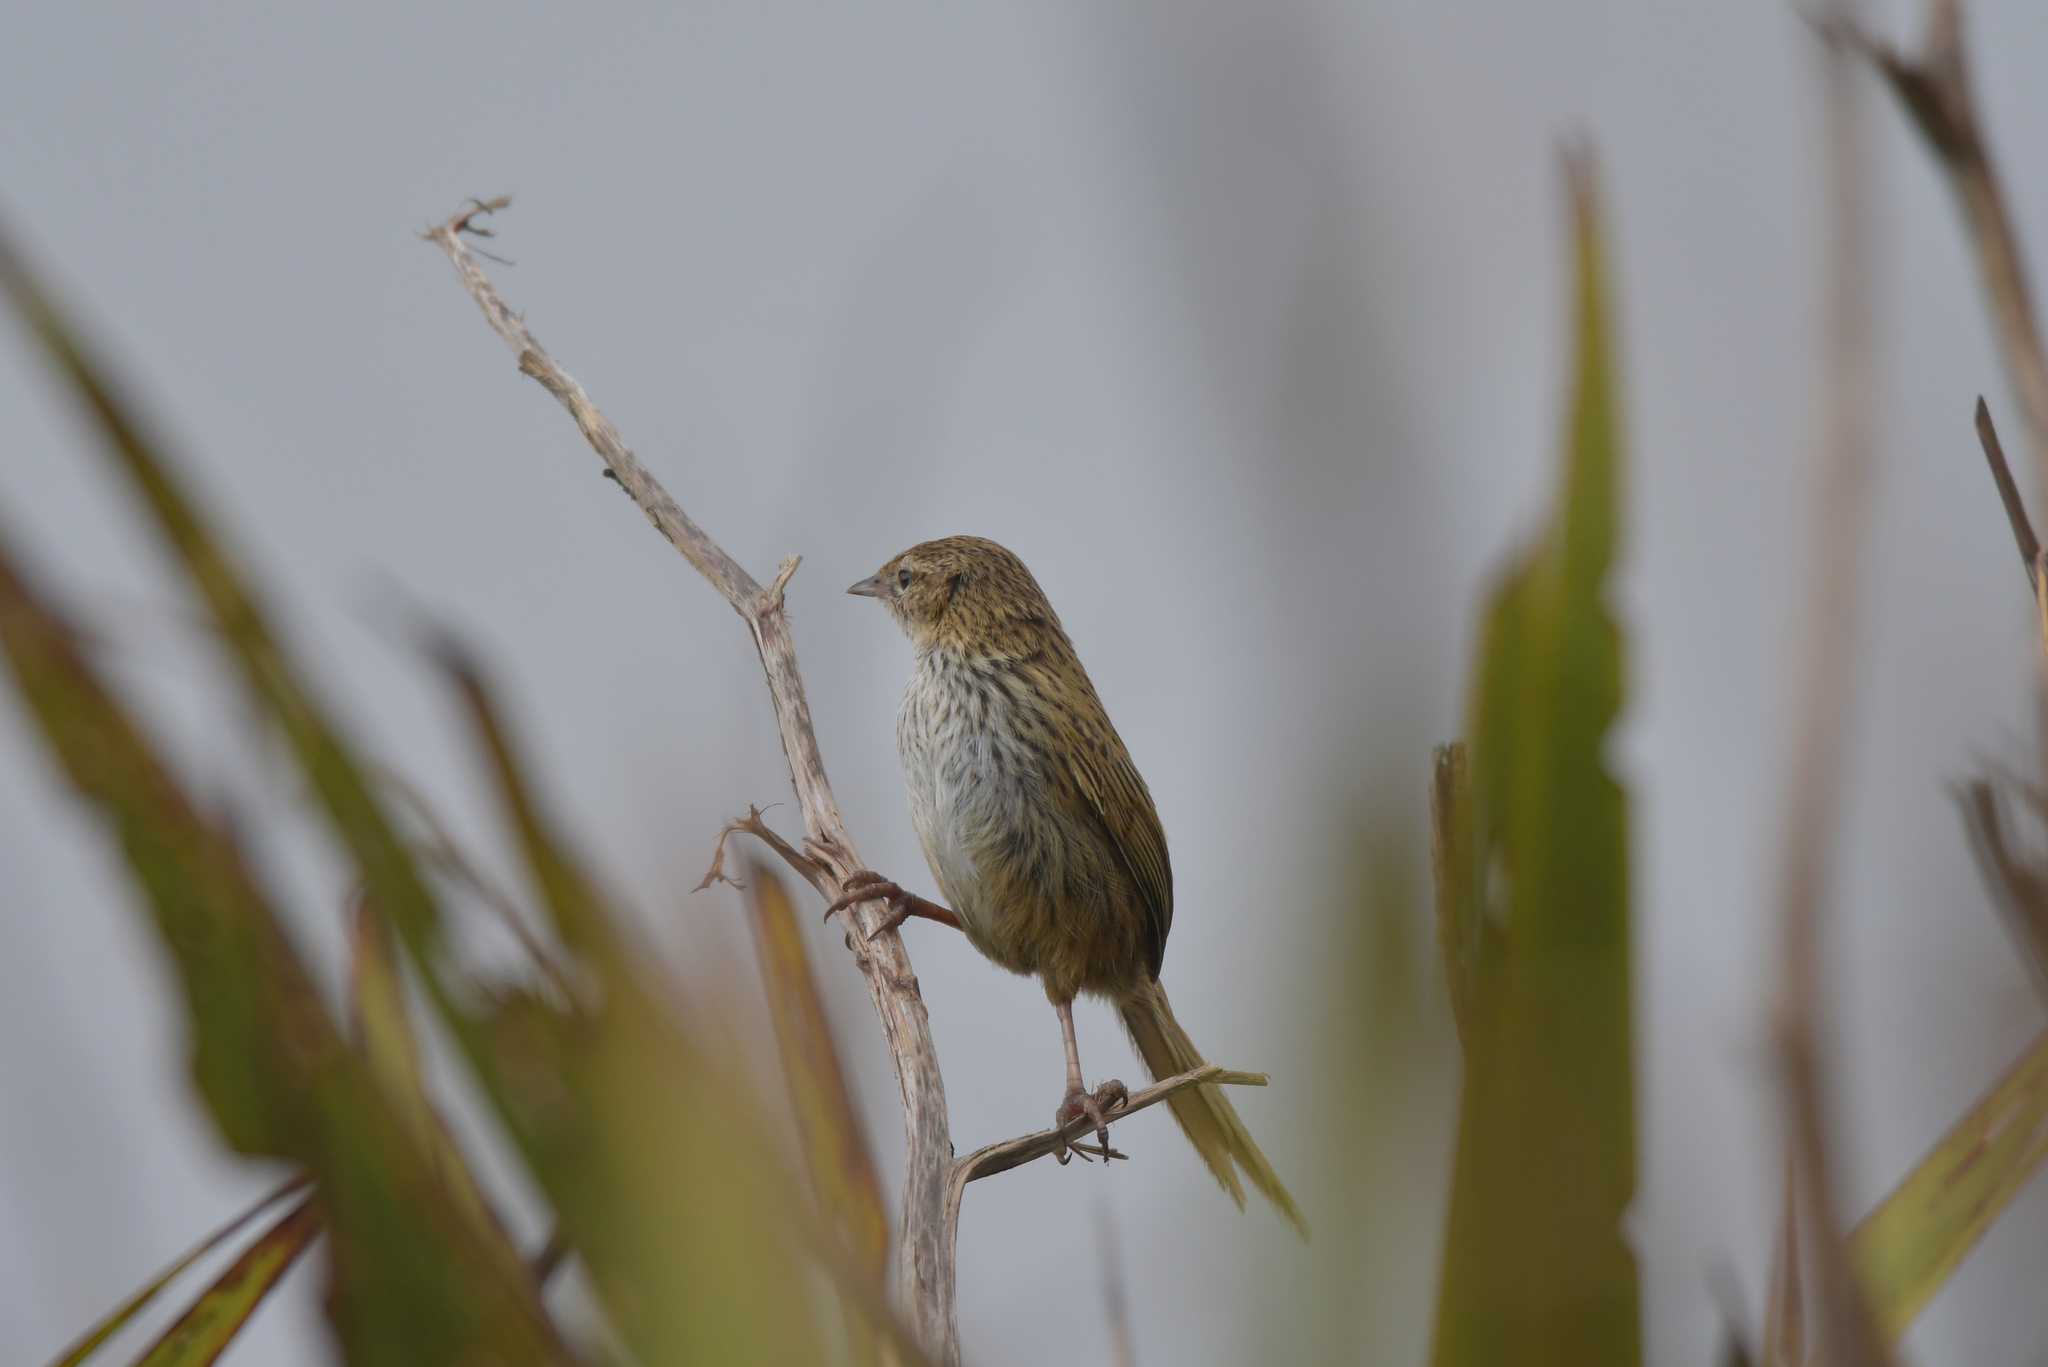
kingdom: Animalia
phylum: Chordata
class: Aves
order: Passeriformes
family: Locustellidae
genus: Poodytes
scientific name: Poodytes punctatus
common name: New zealand fernbird
